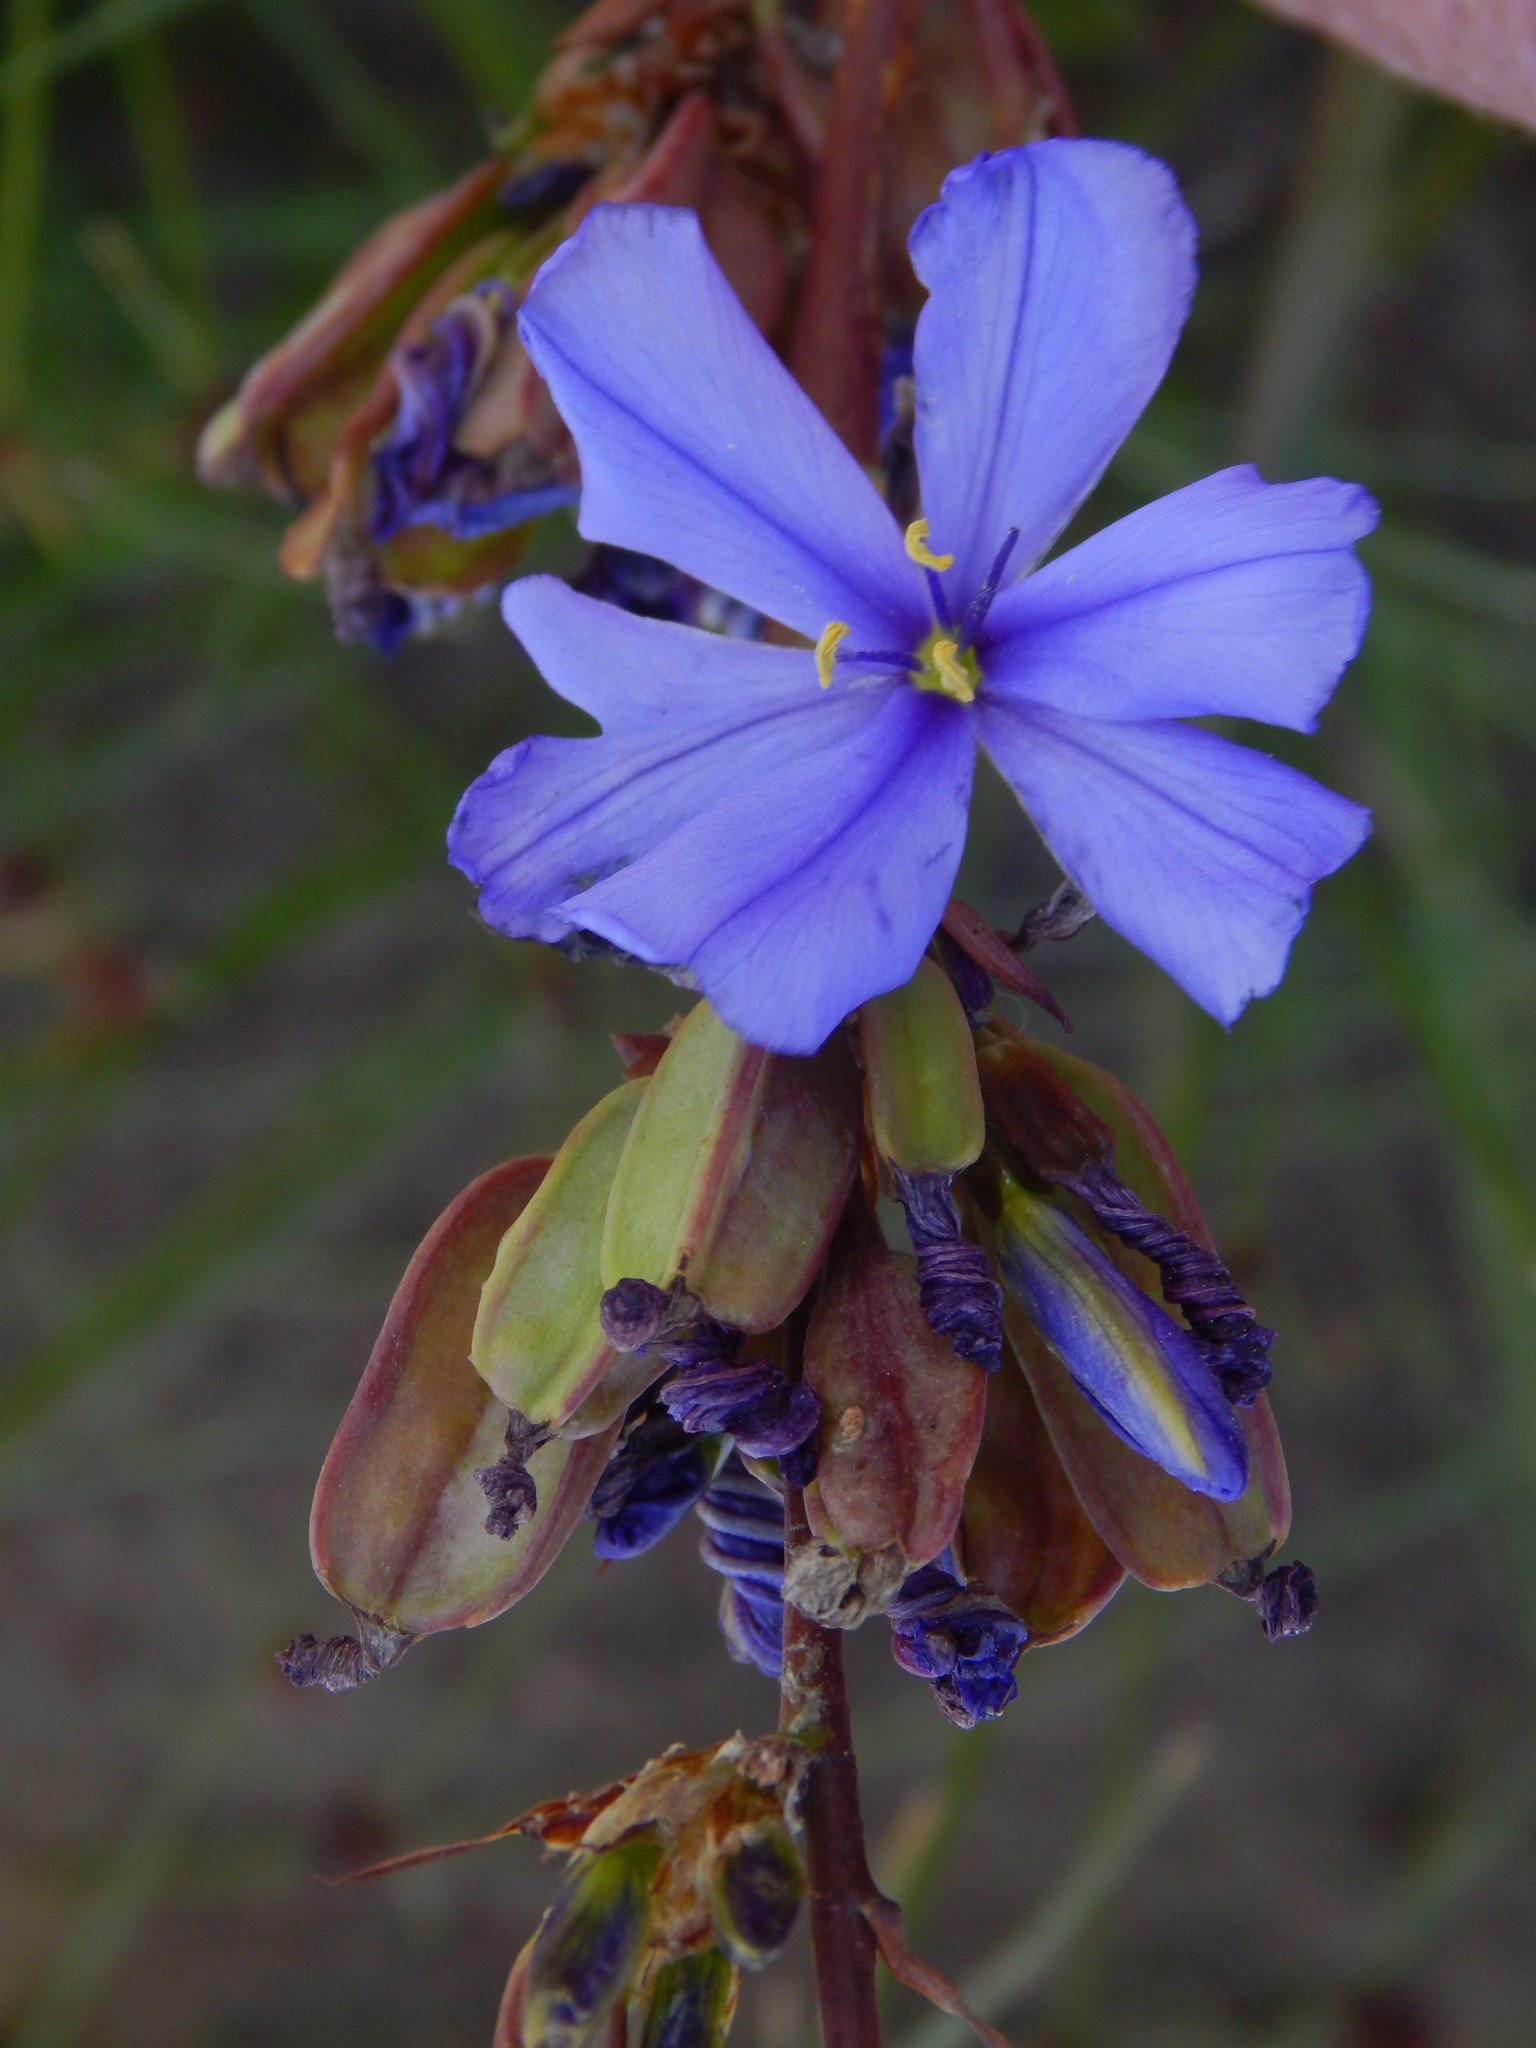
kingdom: Plantae
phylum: Tracheophyta
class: Liliopsida
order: Asparagales
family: Iridaceae
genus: Aristea
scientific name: Aristea bakeri
